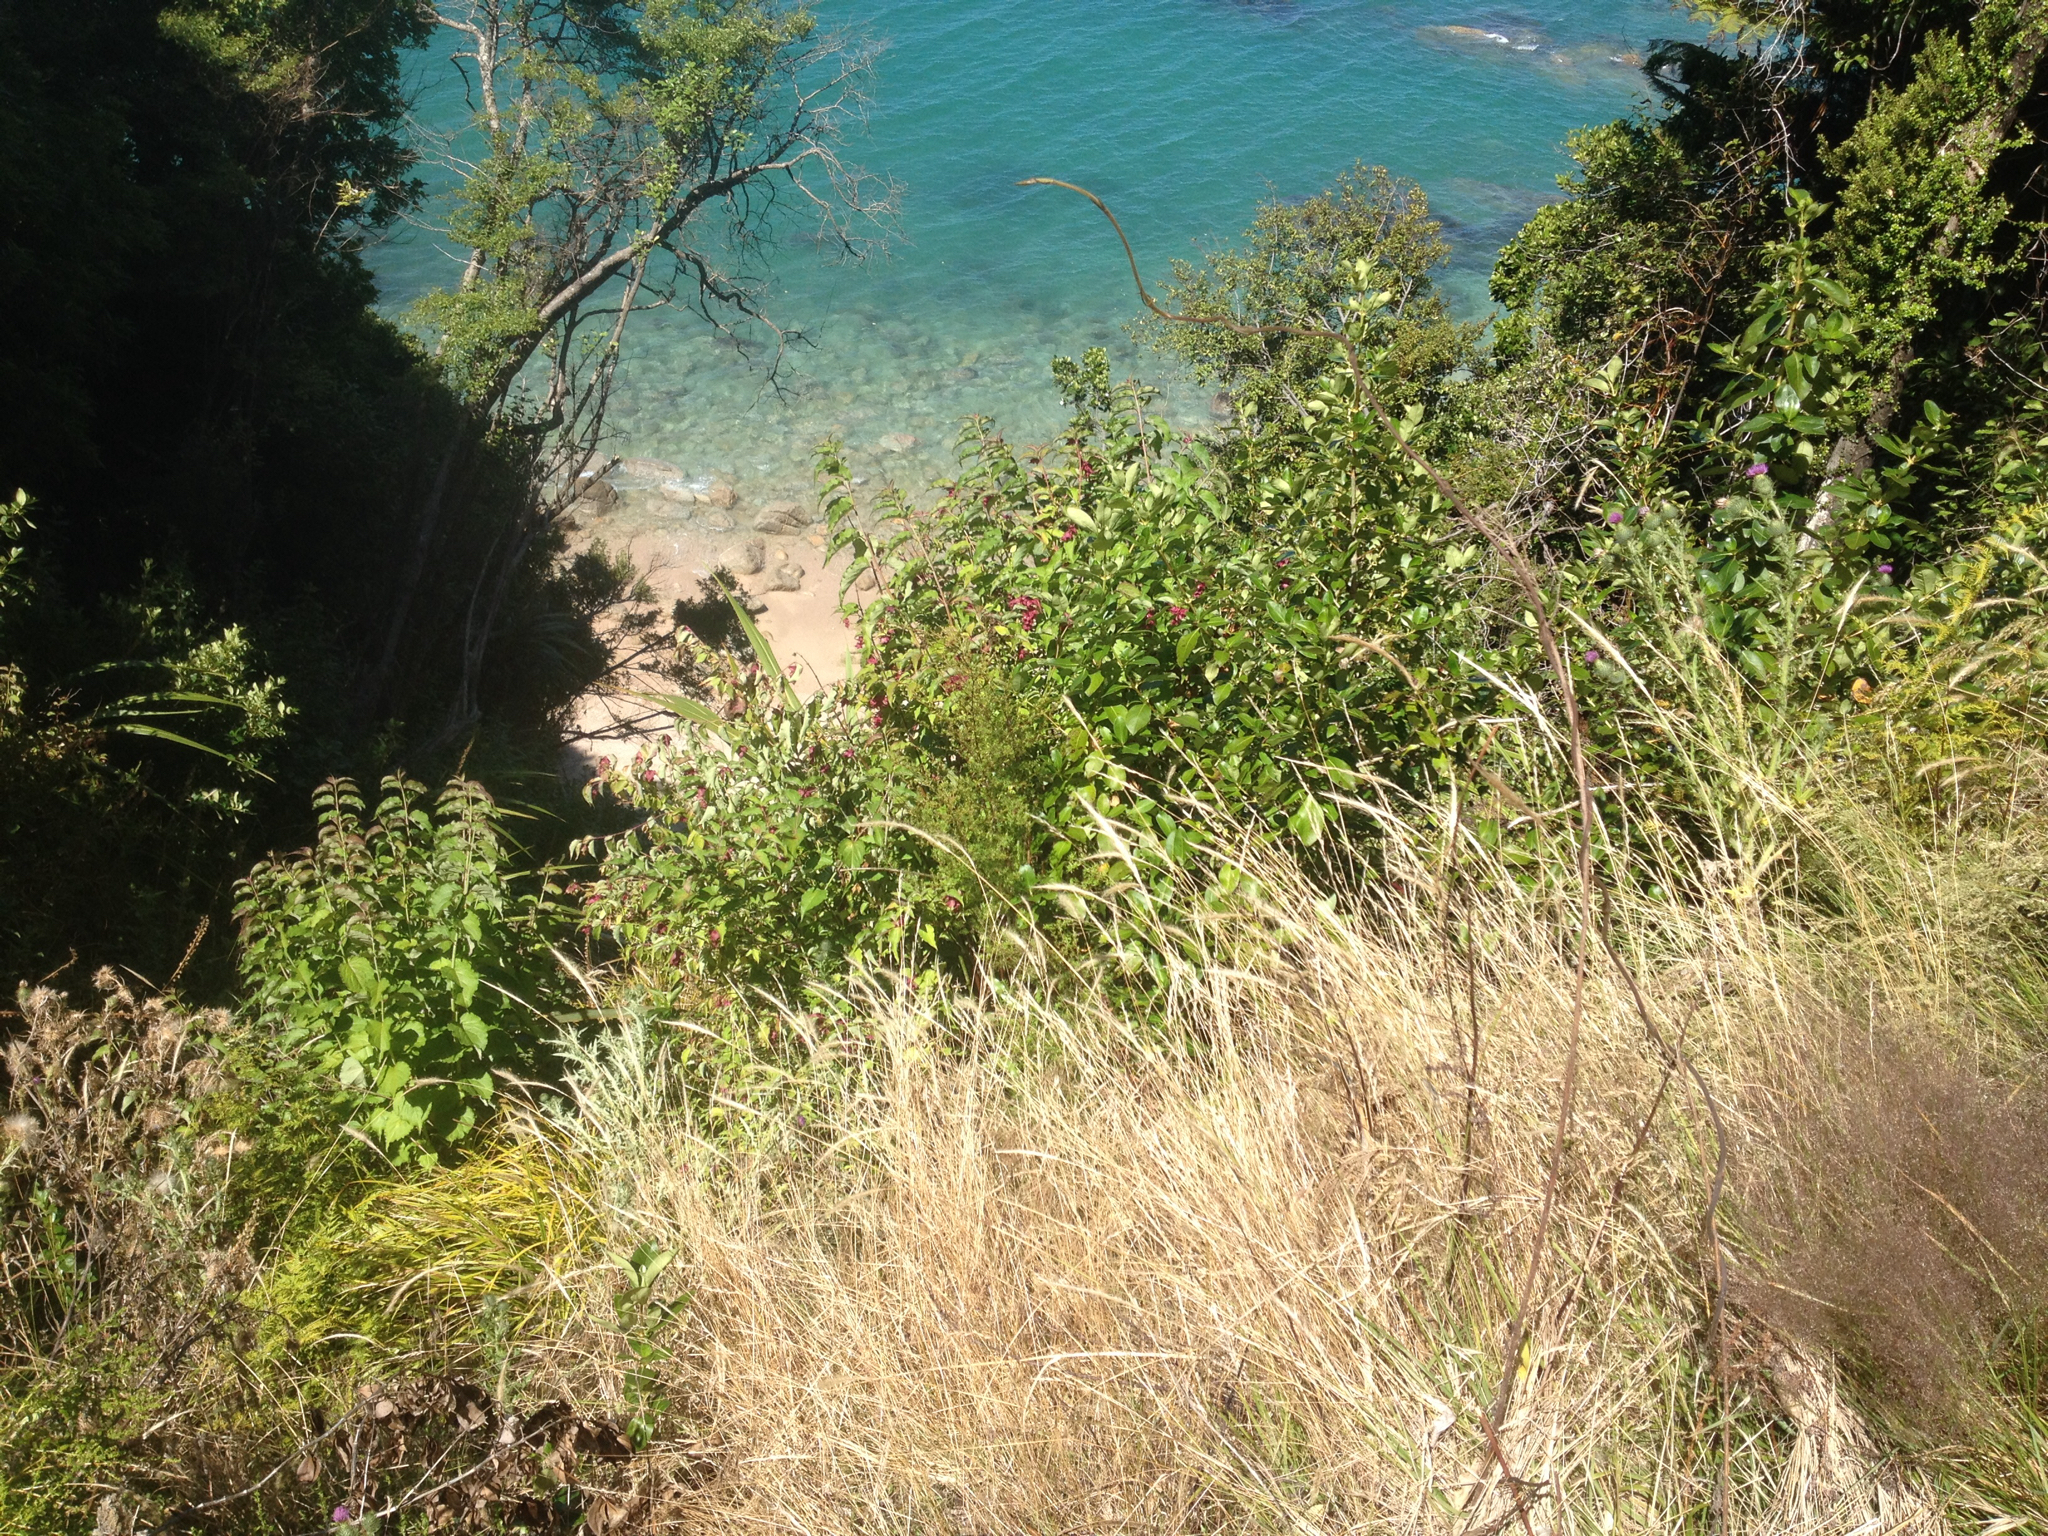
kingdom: Plantae
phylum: Tracheophyta
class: Magnoliopsida
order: Dipsacales
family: Caprifoliaceae
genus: Leycesteria
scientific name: Leycesteria formosa
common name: Himalayan honeysuckle
